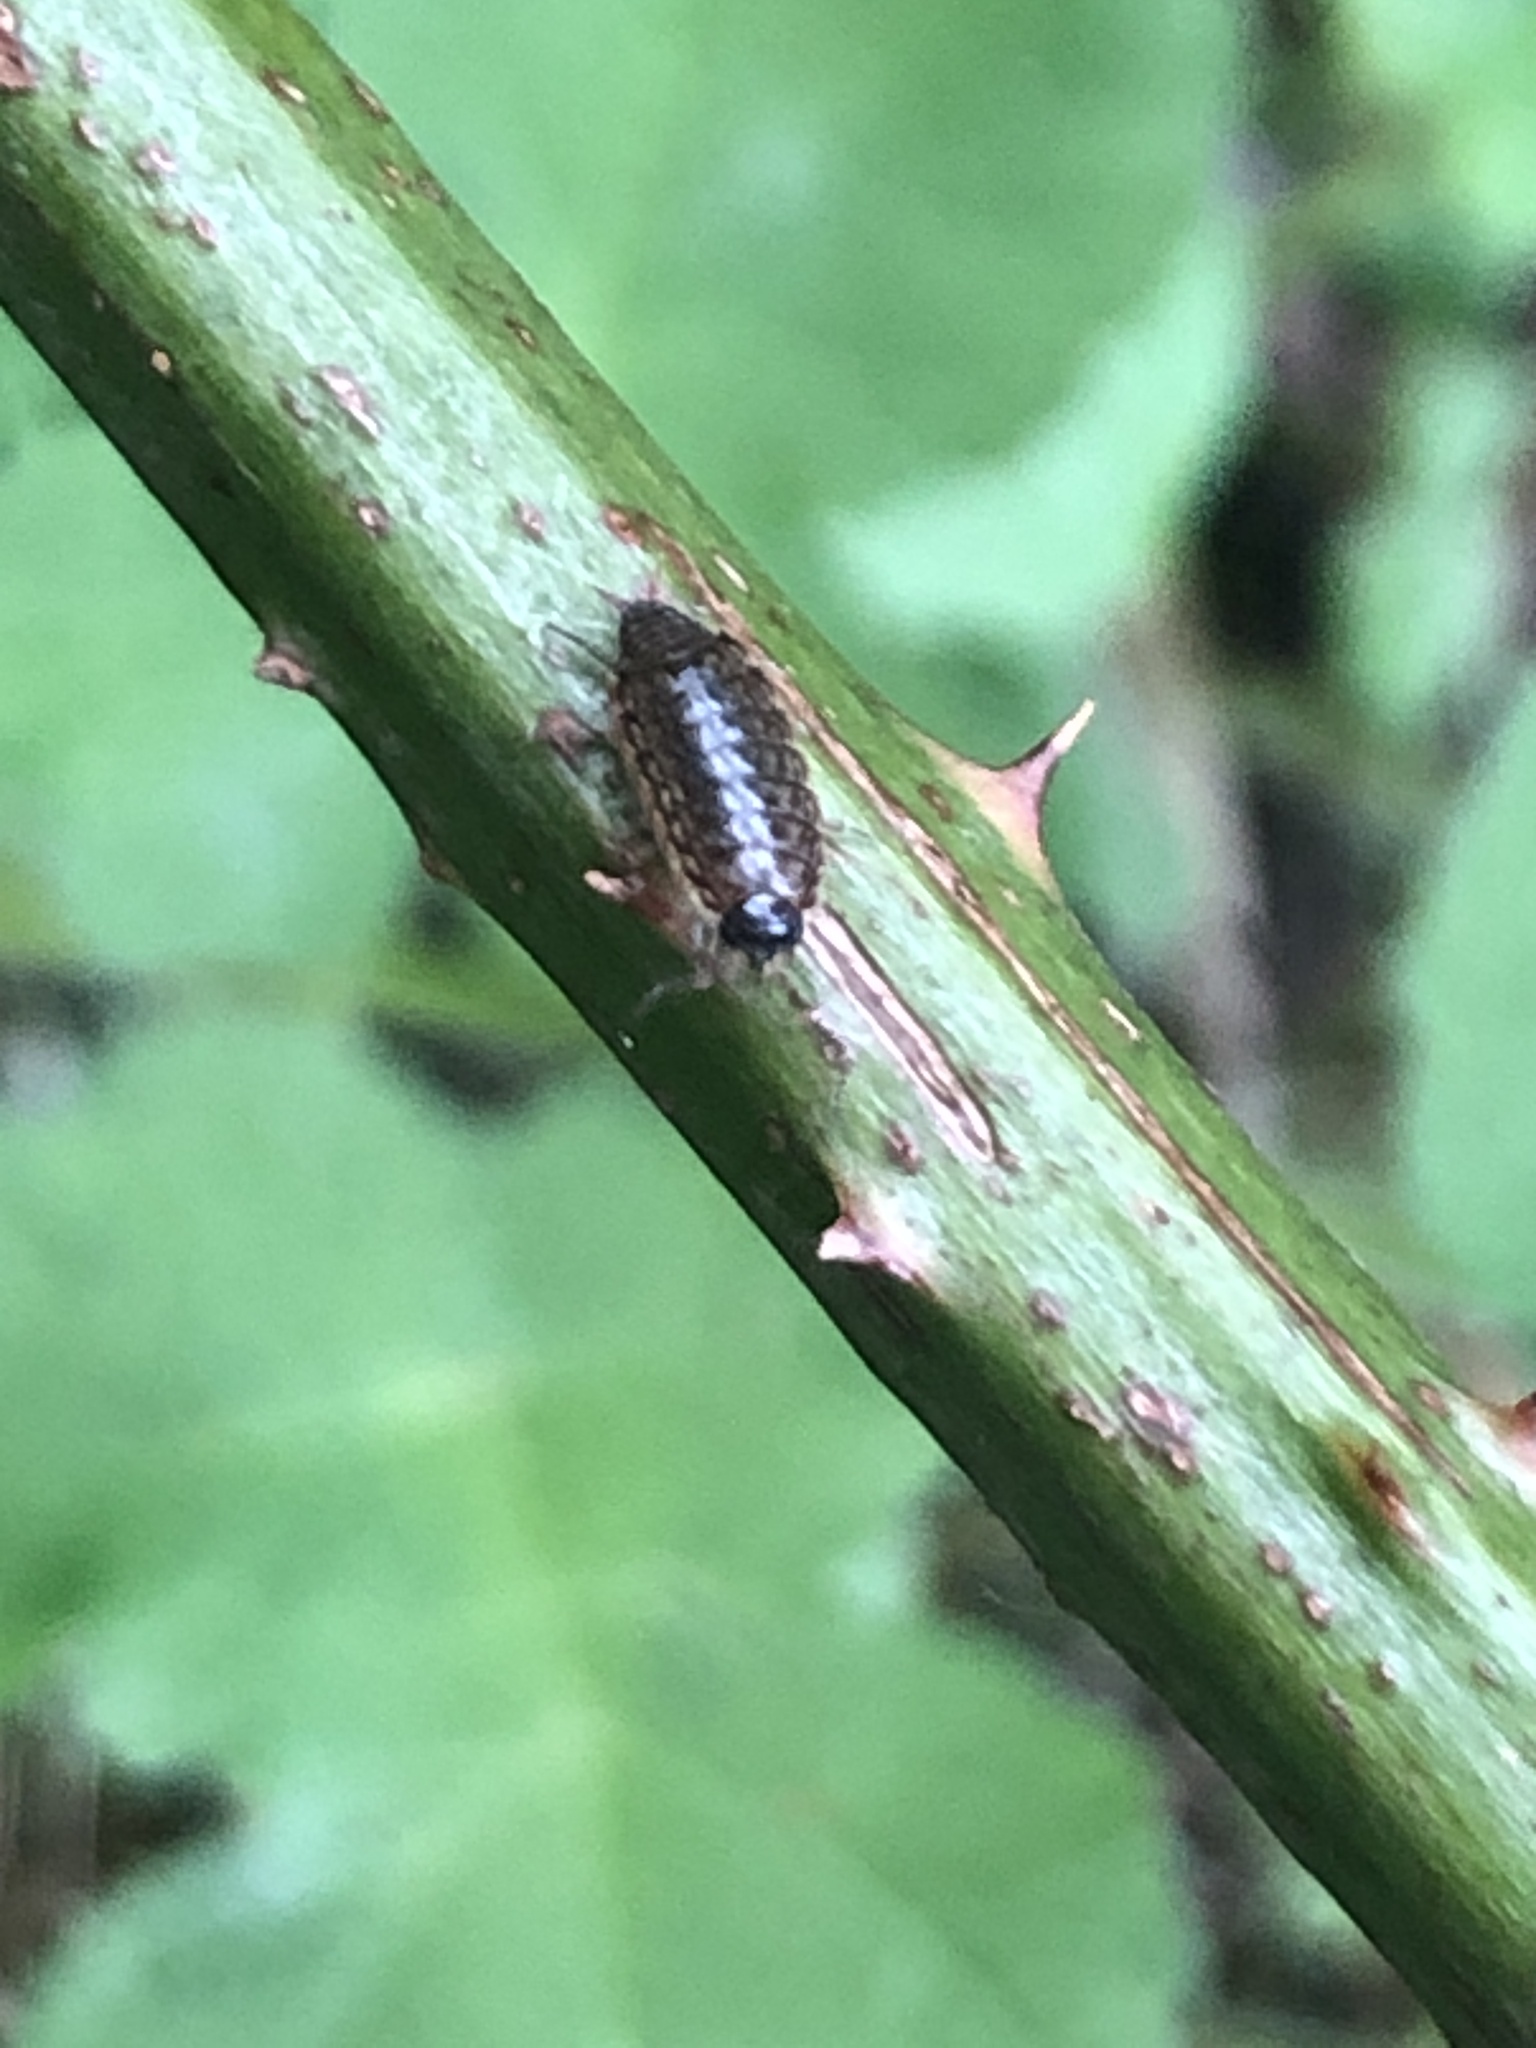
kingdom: Animalia
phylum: Arthropoda
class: Malacostraca
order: Isopoda
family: Philosciidae
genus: Philoscia
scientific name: Philoscia muscorum
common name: Common striped woodlouse
